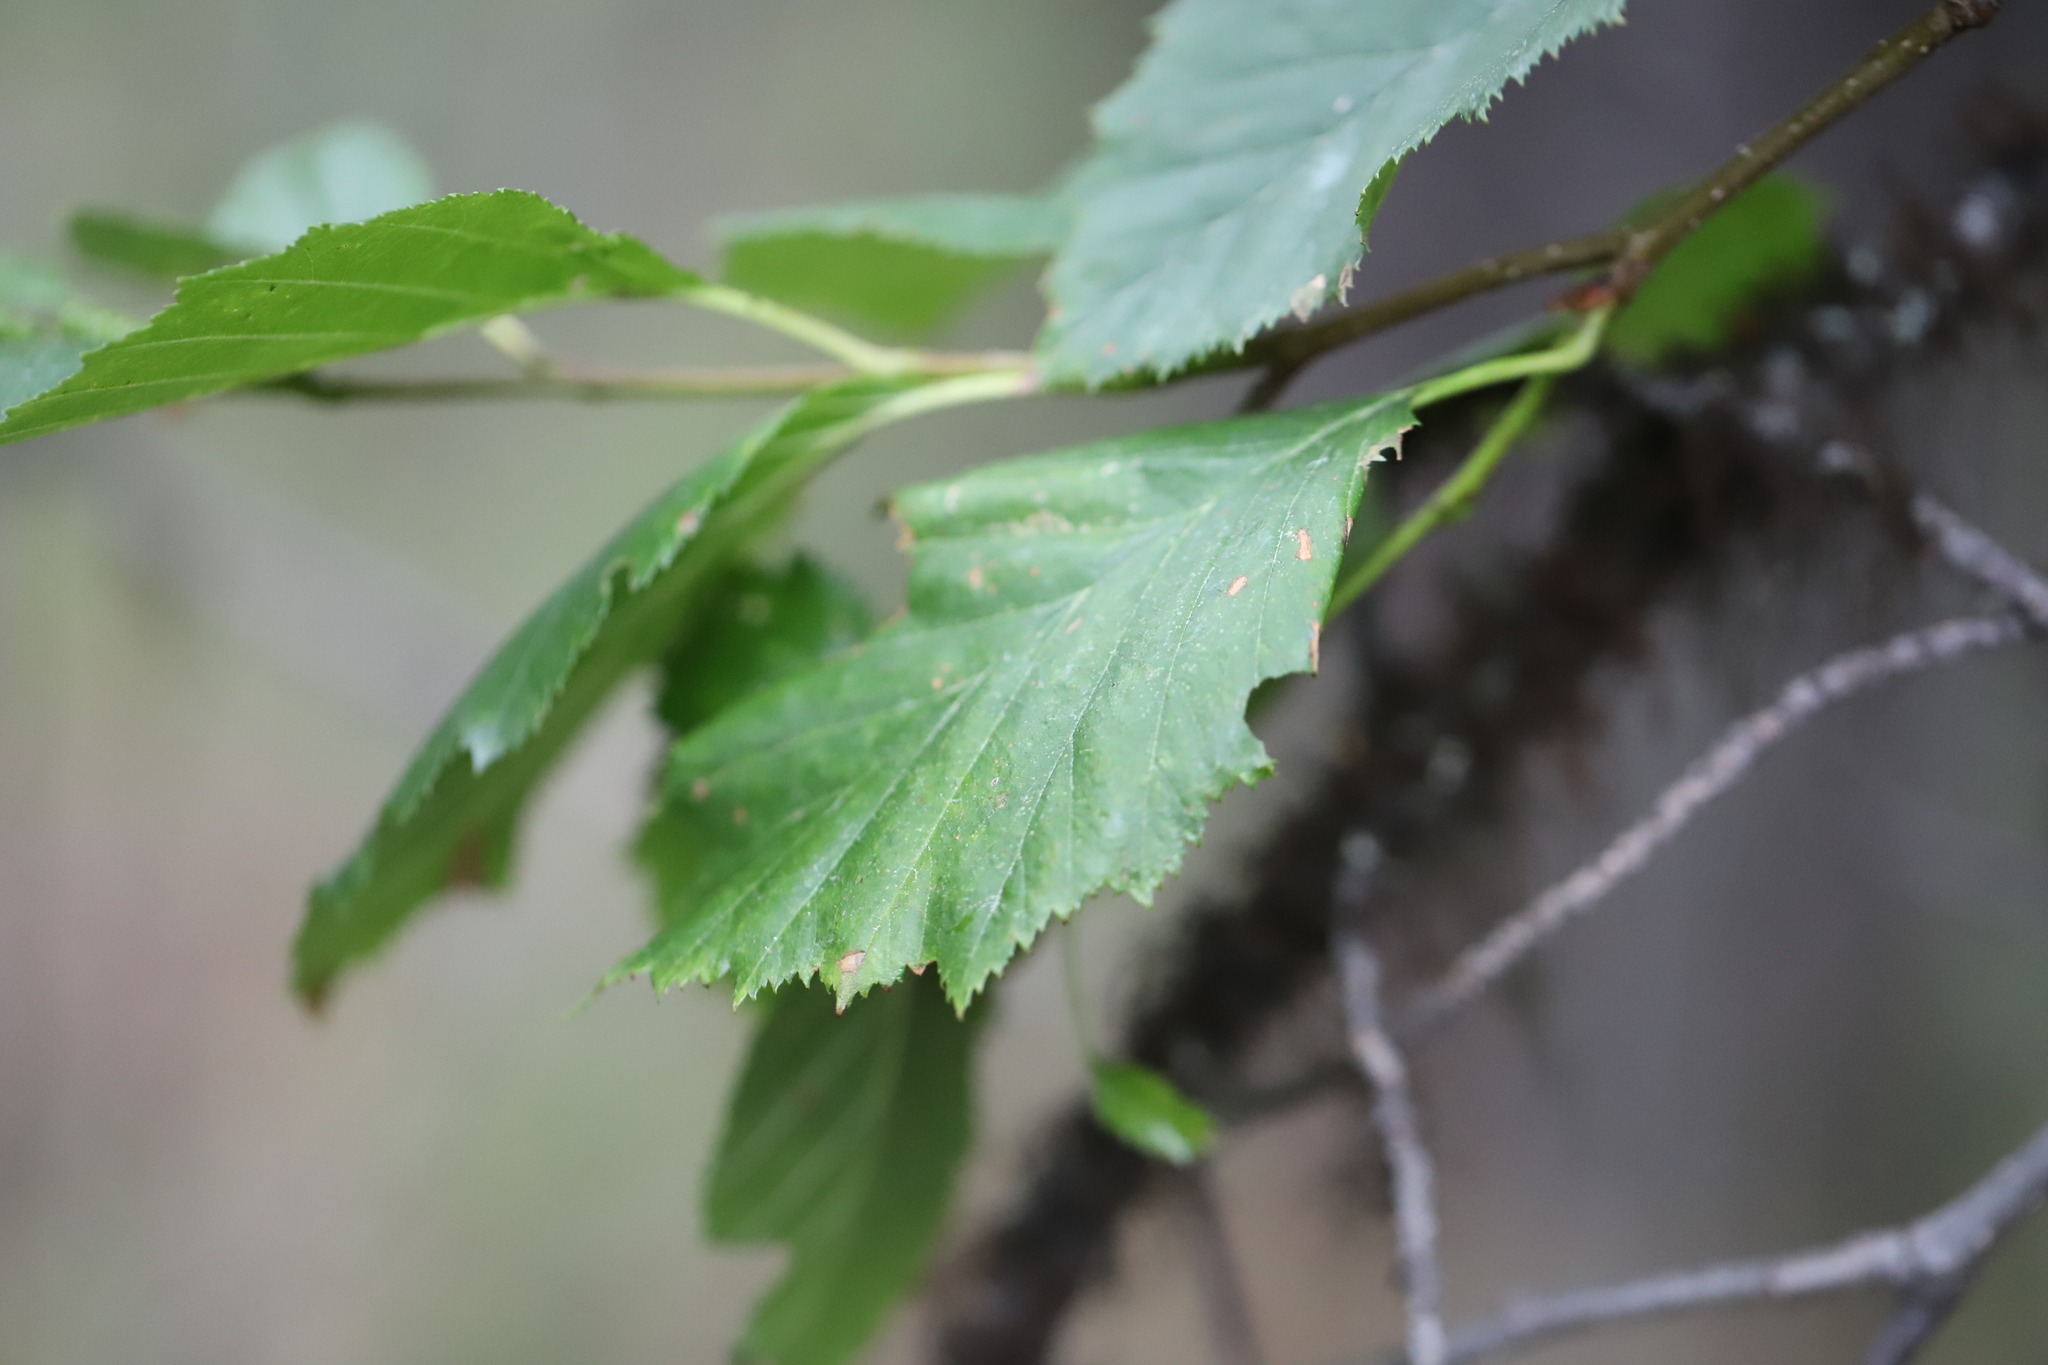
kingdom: Plantae
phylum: Tracheophyta
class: Magnoliopsida
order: Fagales
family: Betulaceae
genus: Alnus
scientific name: Alnus alnobetula
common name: Green alder
